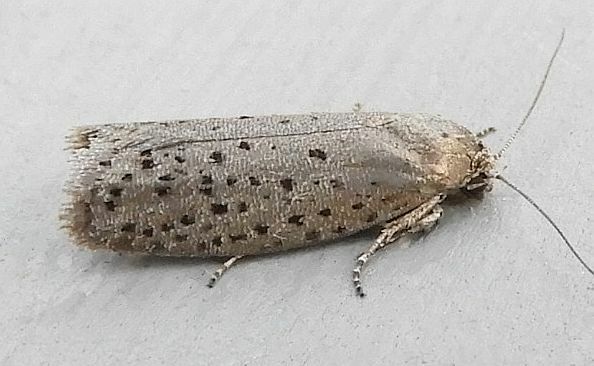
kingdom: Animalia
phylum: Arthropoda
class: Insecta
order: Lepidoptera
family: Galacticidae
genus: Homadaula
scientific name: Homadaula anisocentra
